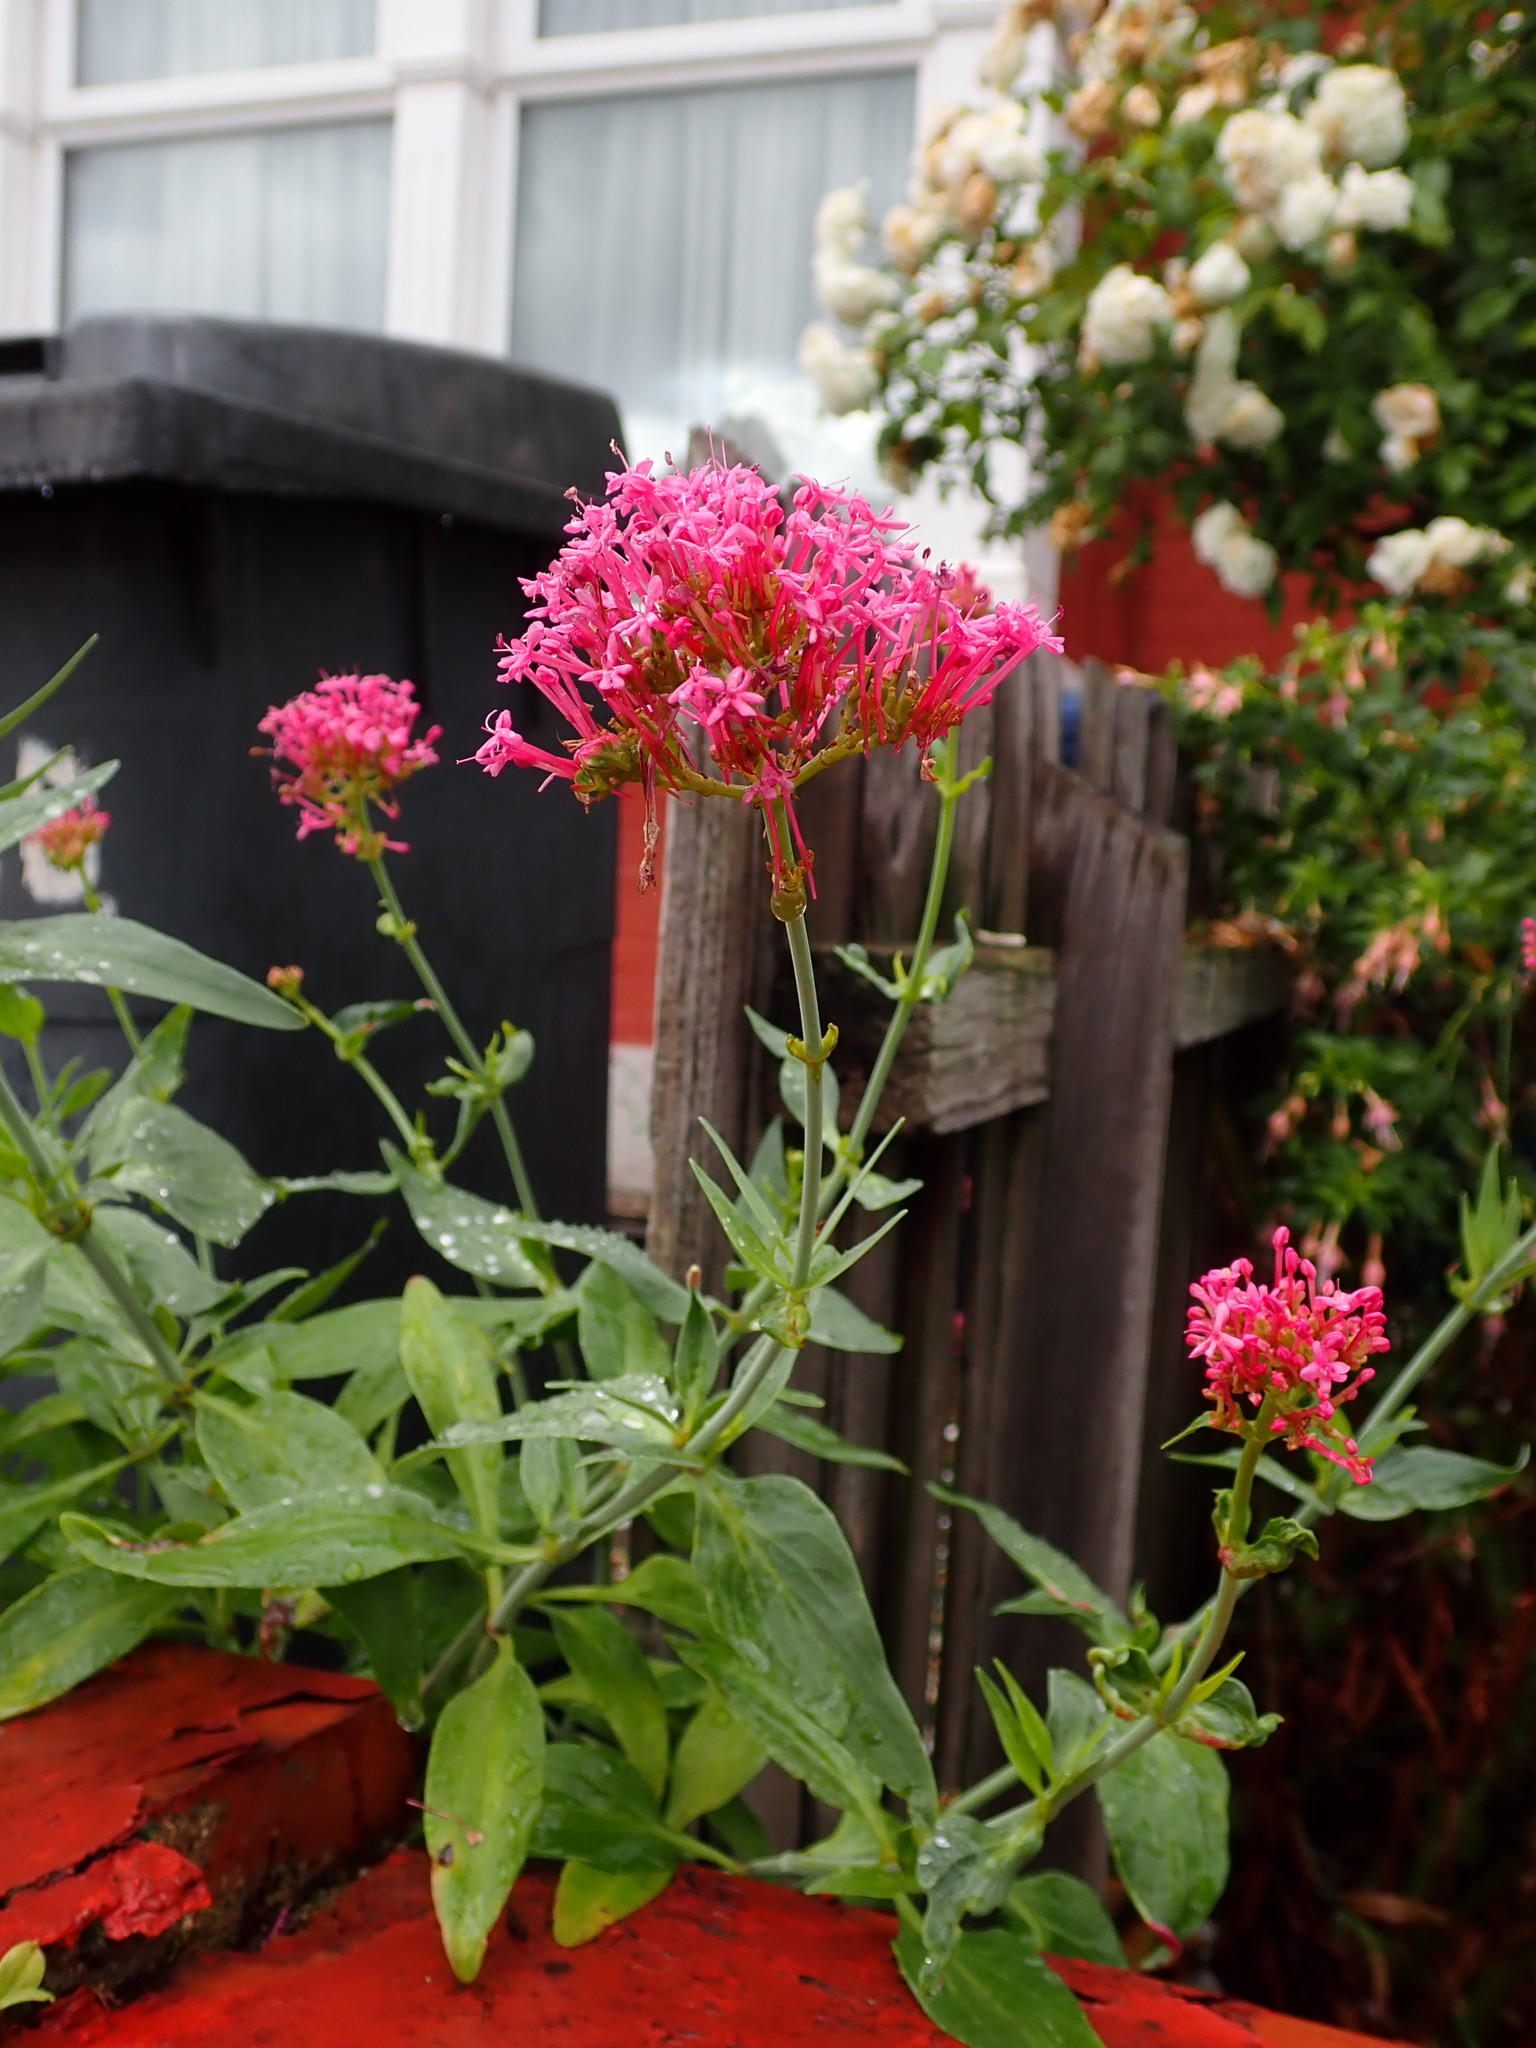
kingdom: Plantae
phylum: Tracheophyta
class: Magnoliopsida
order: Dipsacales
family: Caprifoliaceae
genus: Centranthus
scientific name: Centranthus ruber
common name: Red valerian
